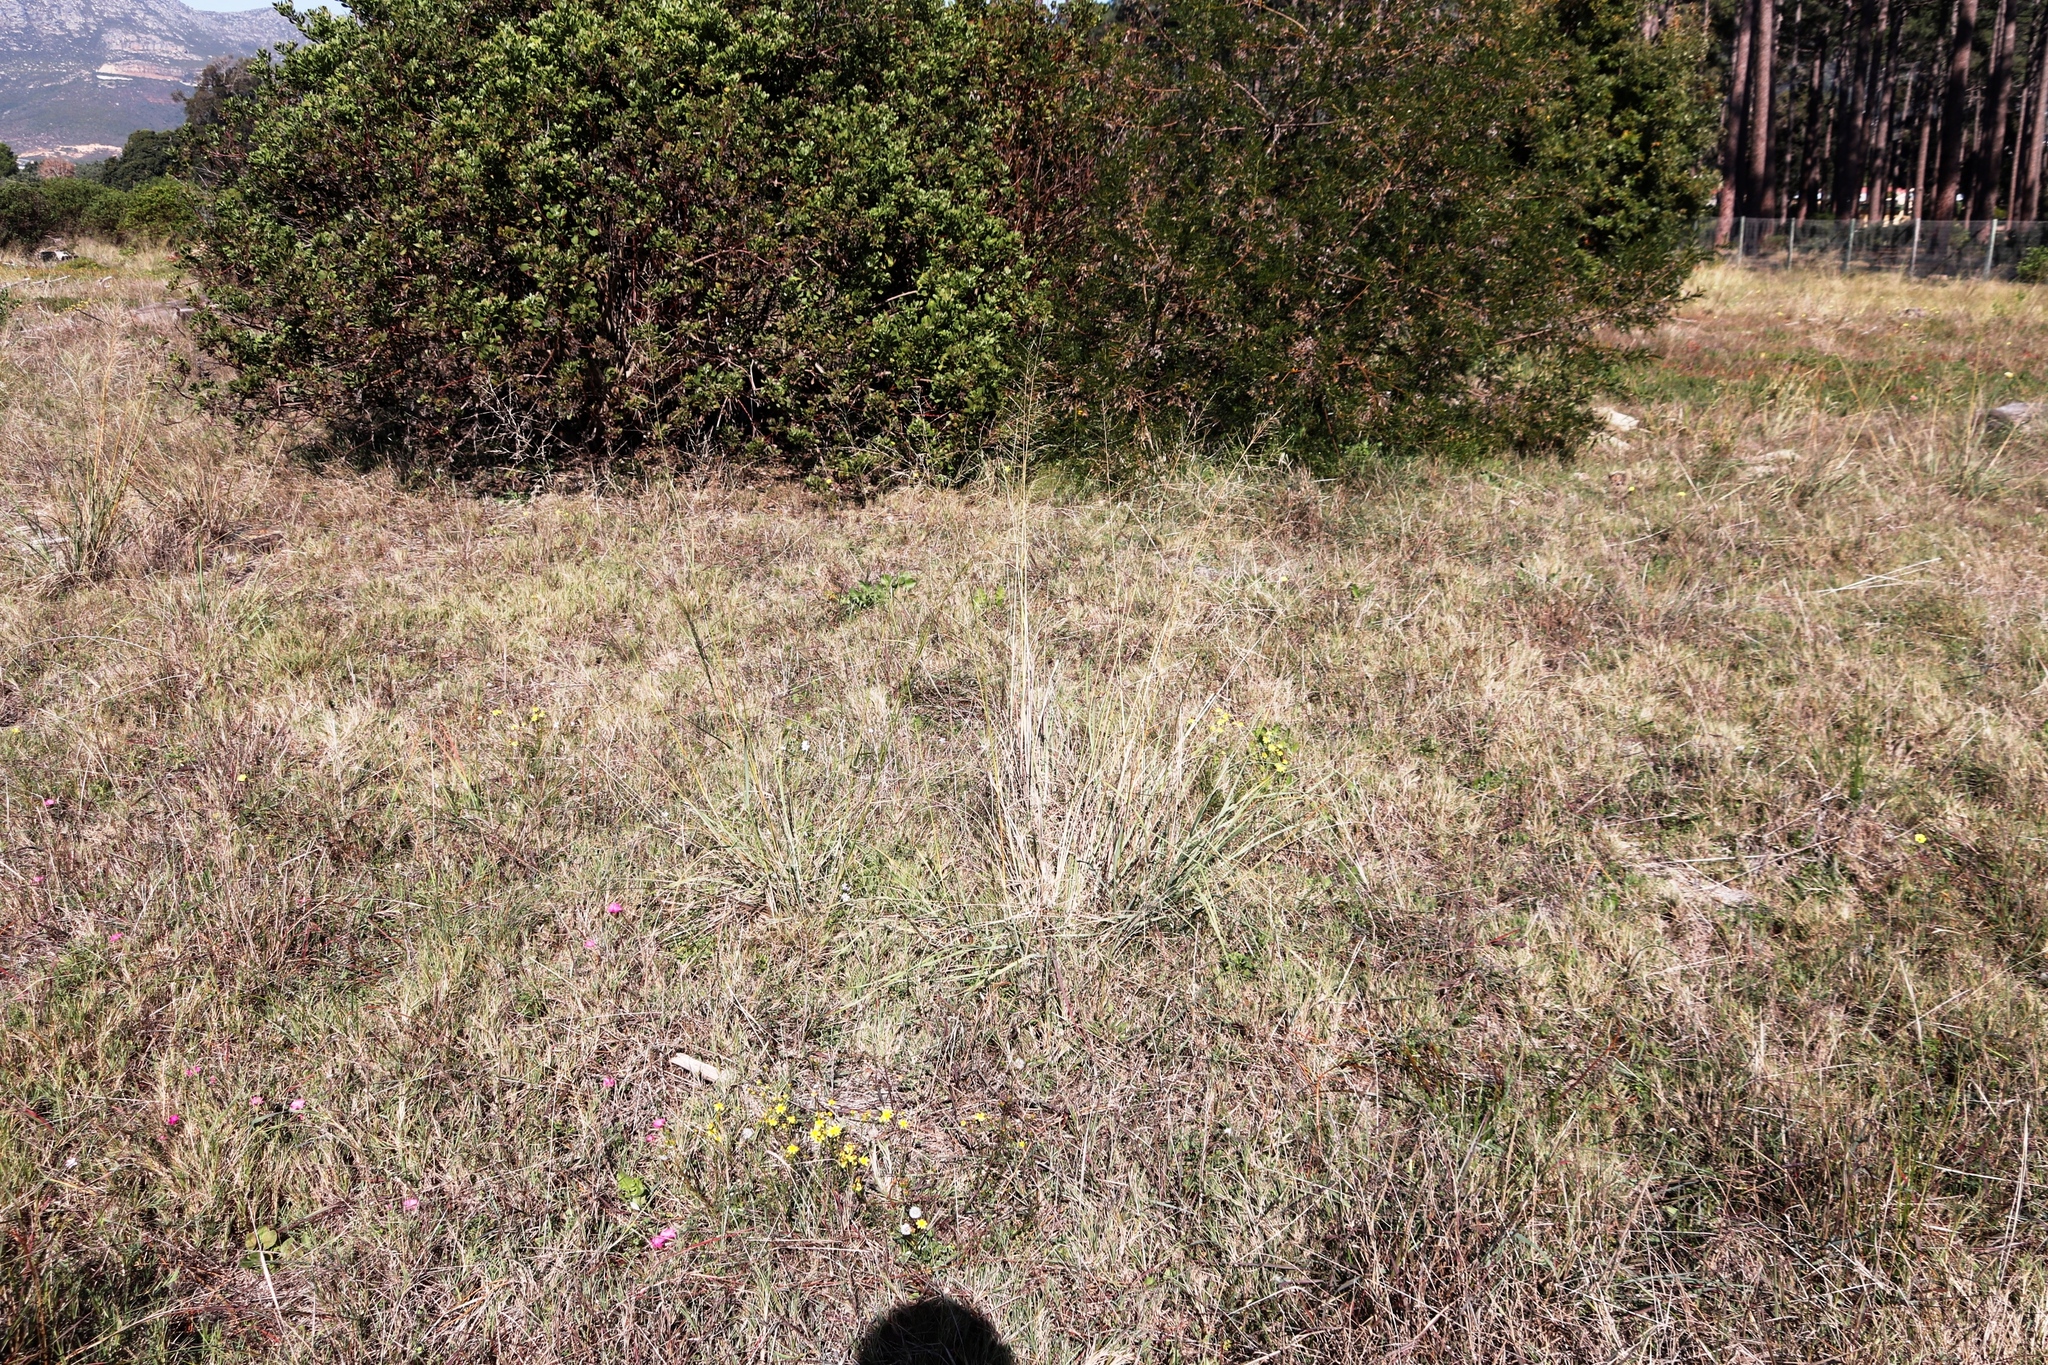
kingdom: Plantae
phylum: Tracheophyta
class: Liliopsida
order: Poales
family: Poaceae
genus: Eragrostis
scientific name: Eragrostis curvula
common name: African love-grass
